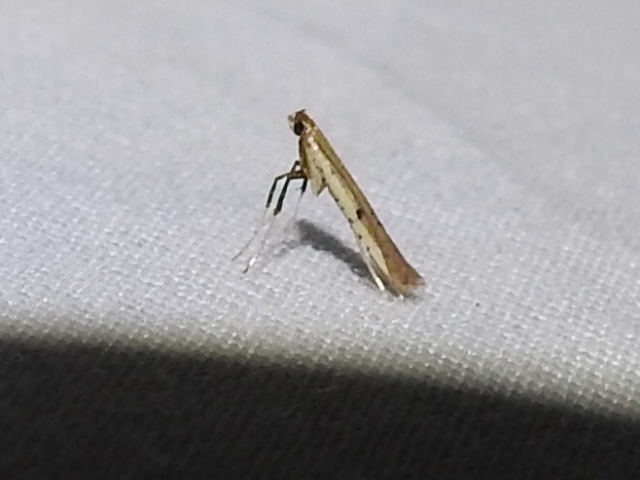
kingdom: Animalia
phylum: Arthropoda
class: Insecta
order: Lepidoptera
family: Gracillariidae
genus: Caloptilia
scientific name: Caloptilia violacella
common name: Tick-trefoil caloptilia moth
